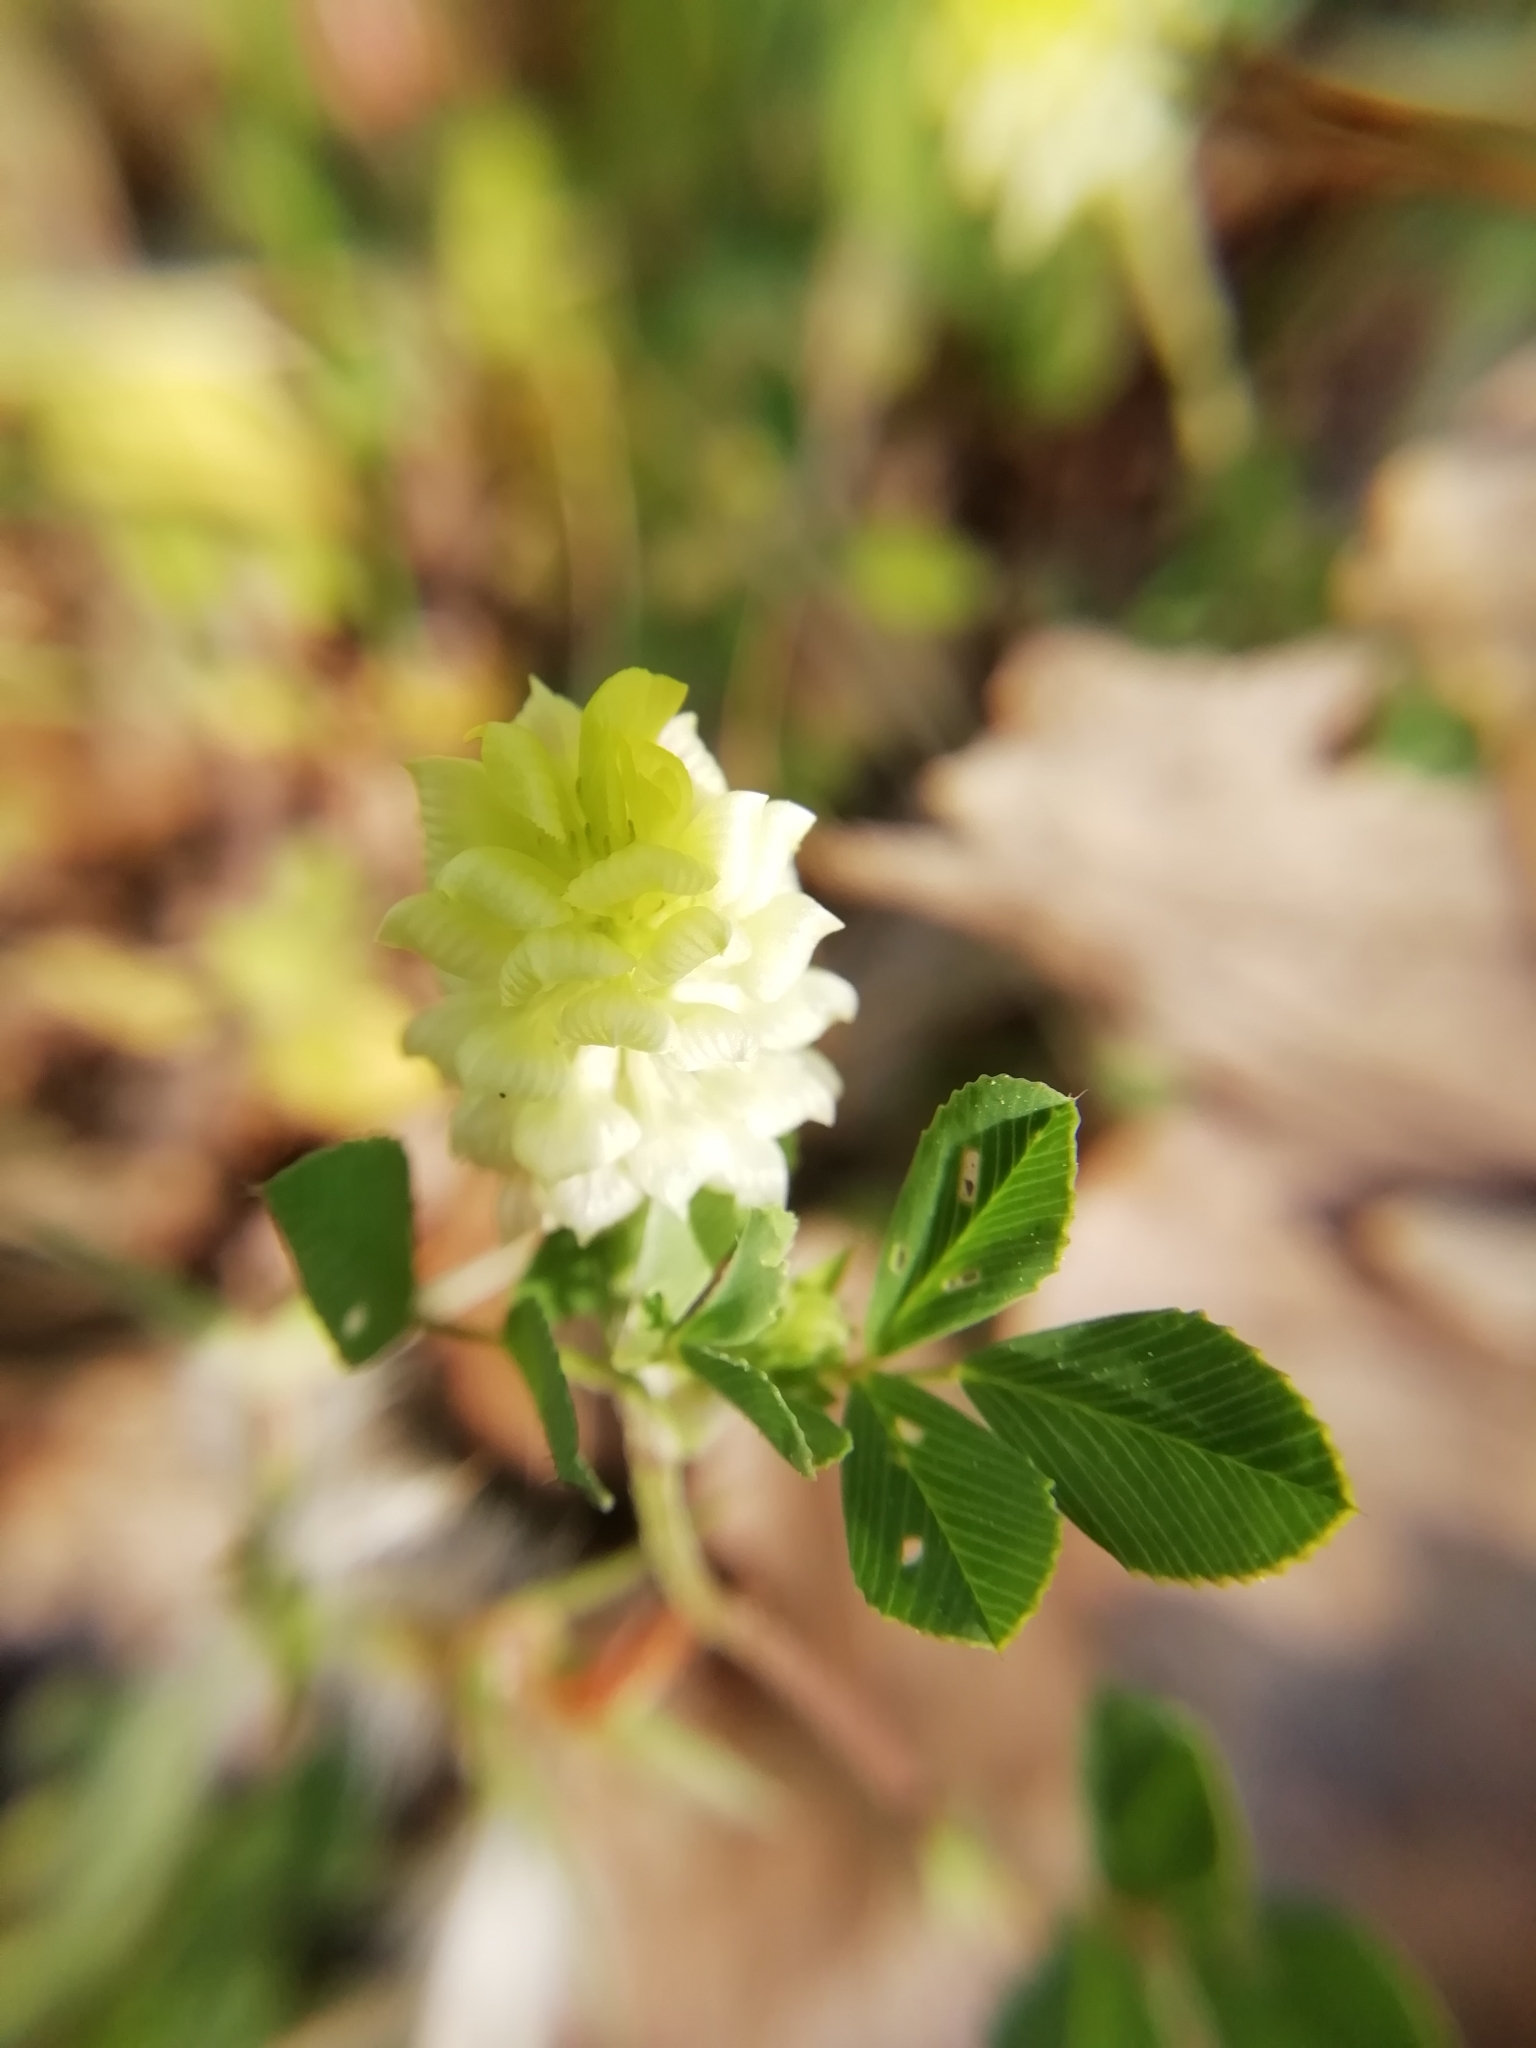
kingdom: Plantae
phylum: Tracheophyta
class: Magnoliopsida
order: Fabales
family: Fabaceae
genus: Trifolium
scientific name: Trifolium campestre
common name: Field clover
